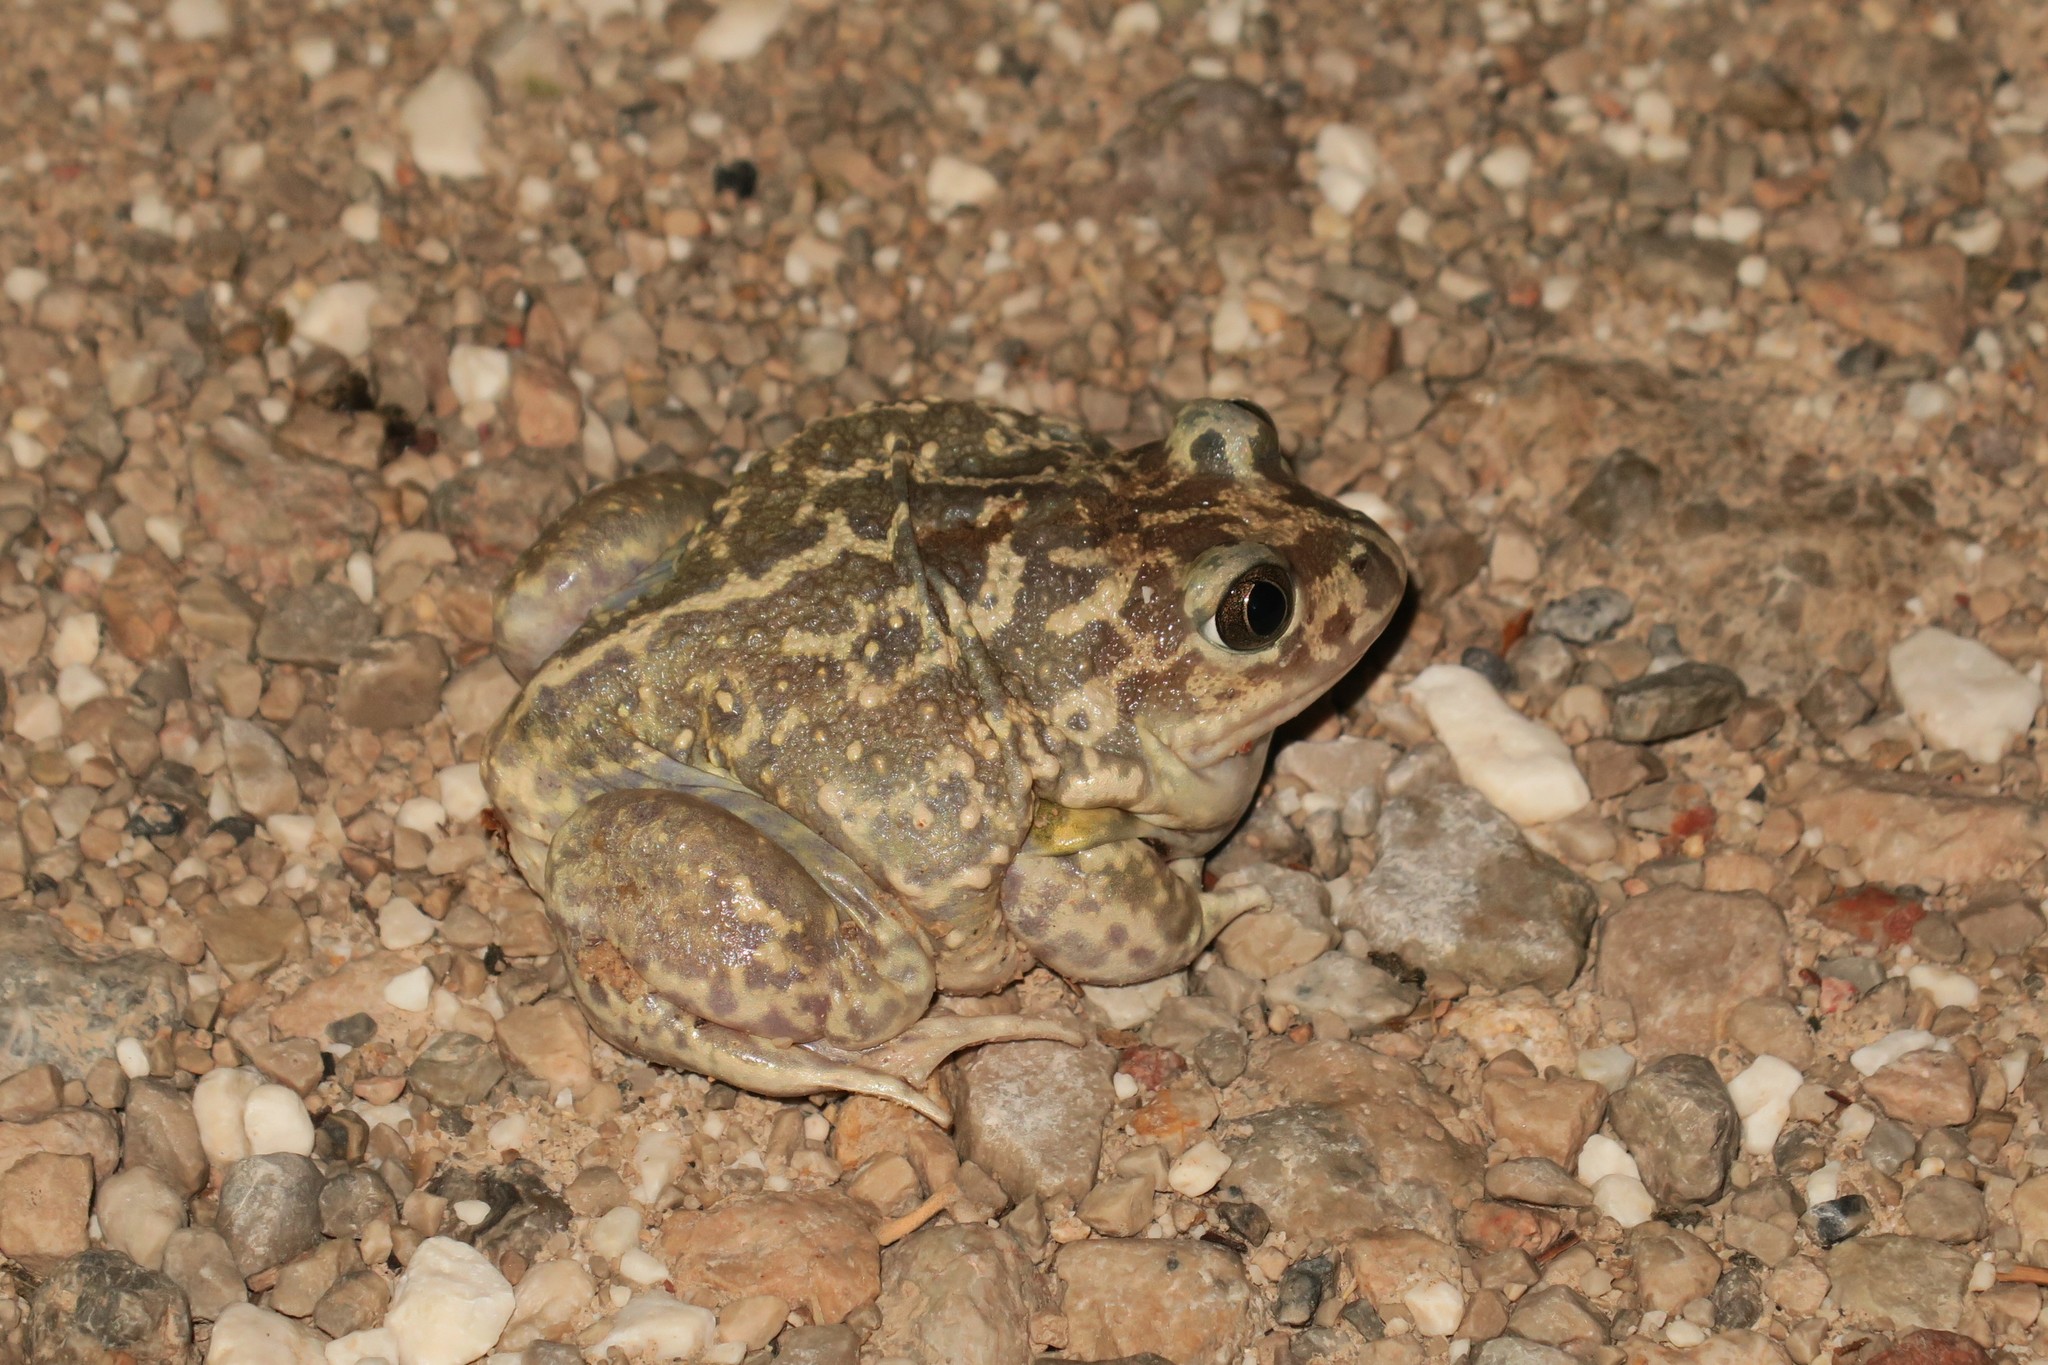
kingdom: Animalia
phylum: Chordata
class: Amphibia
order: Anura
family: Pelobatidae
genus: Pelobates
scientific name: Pelobates cultripes
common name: Western spadefoot
